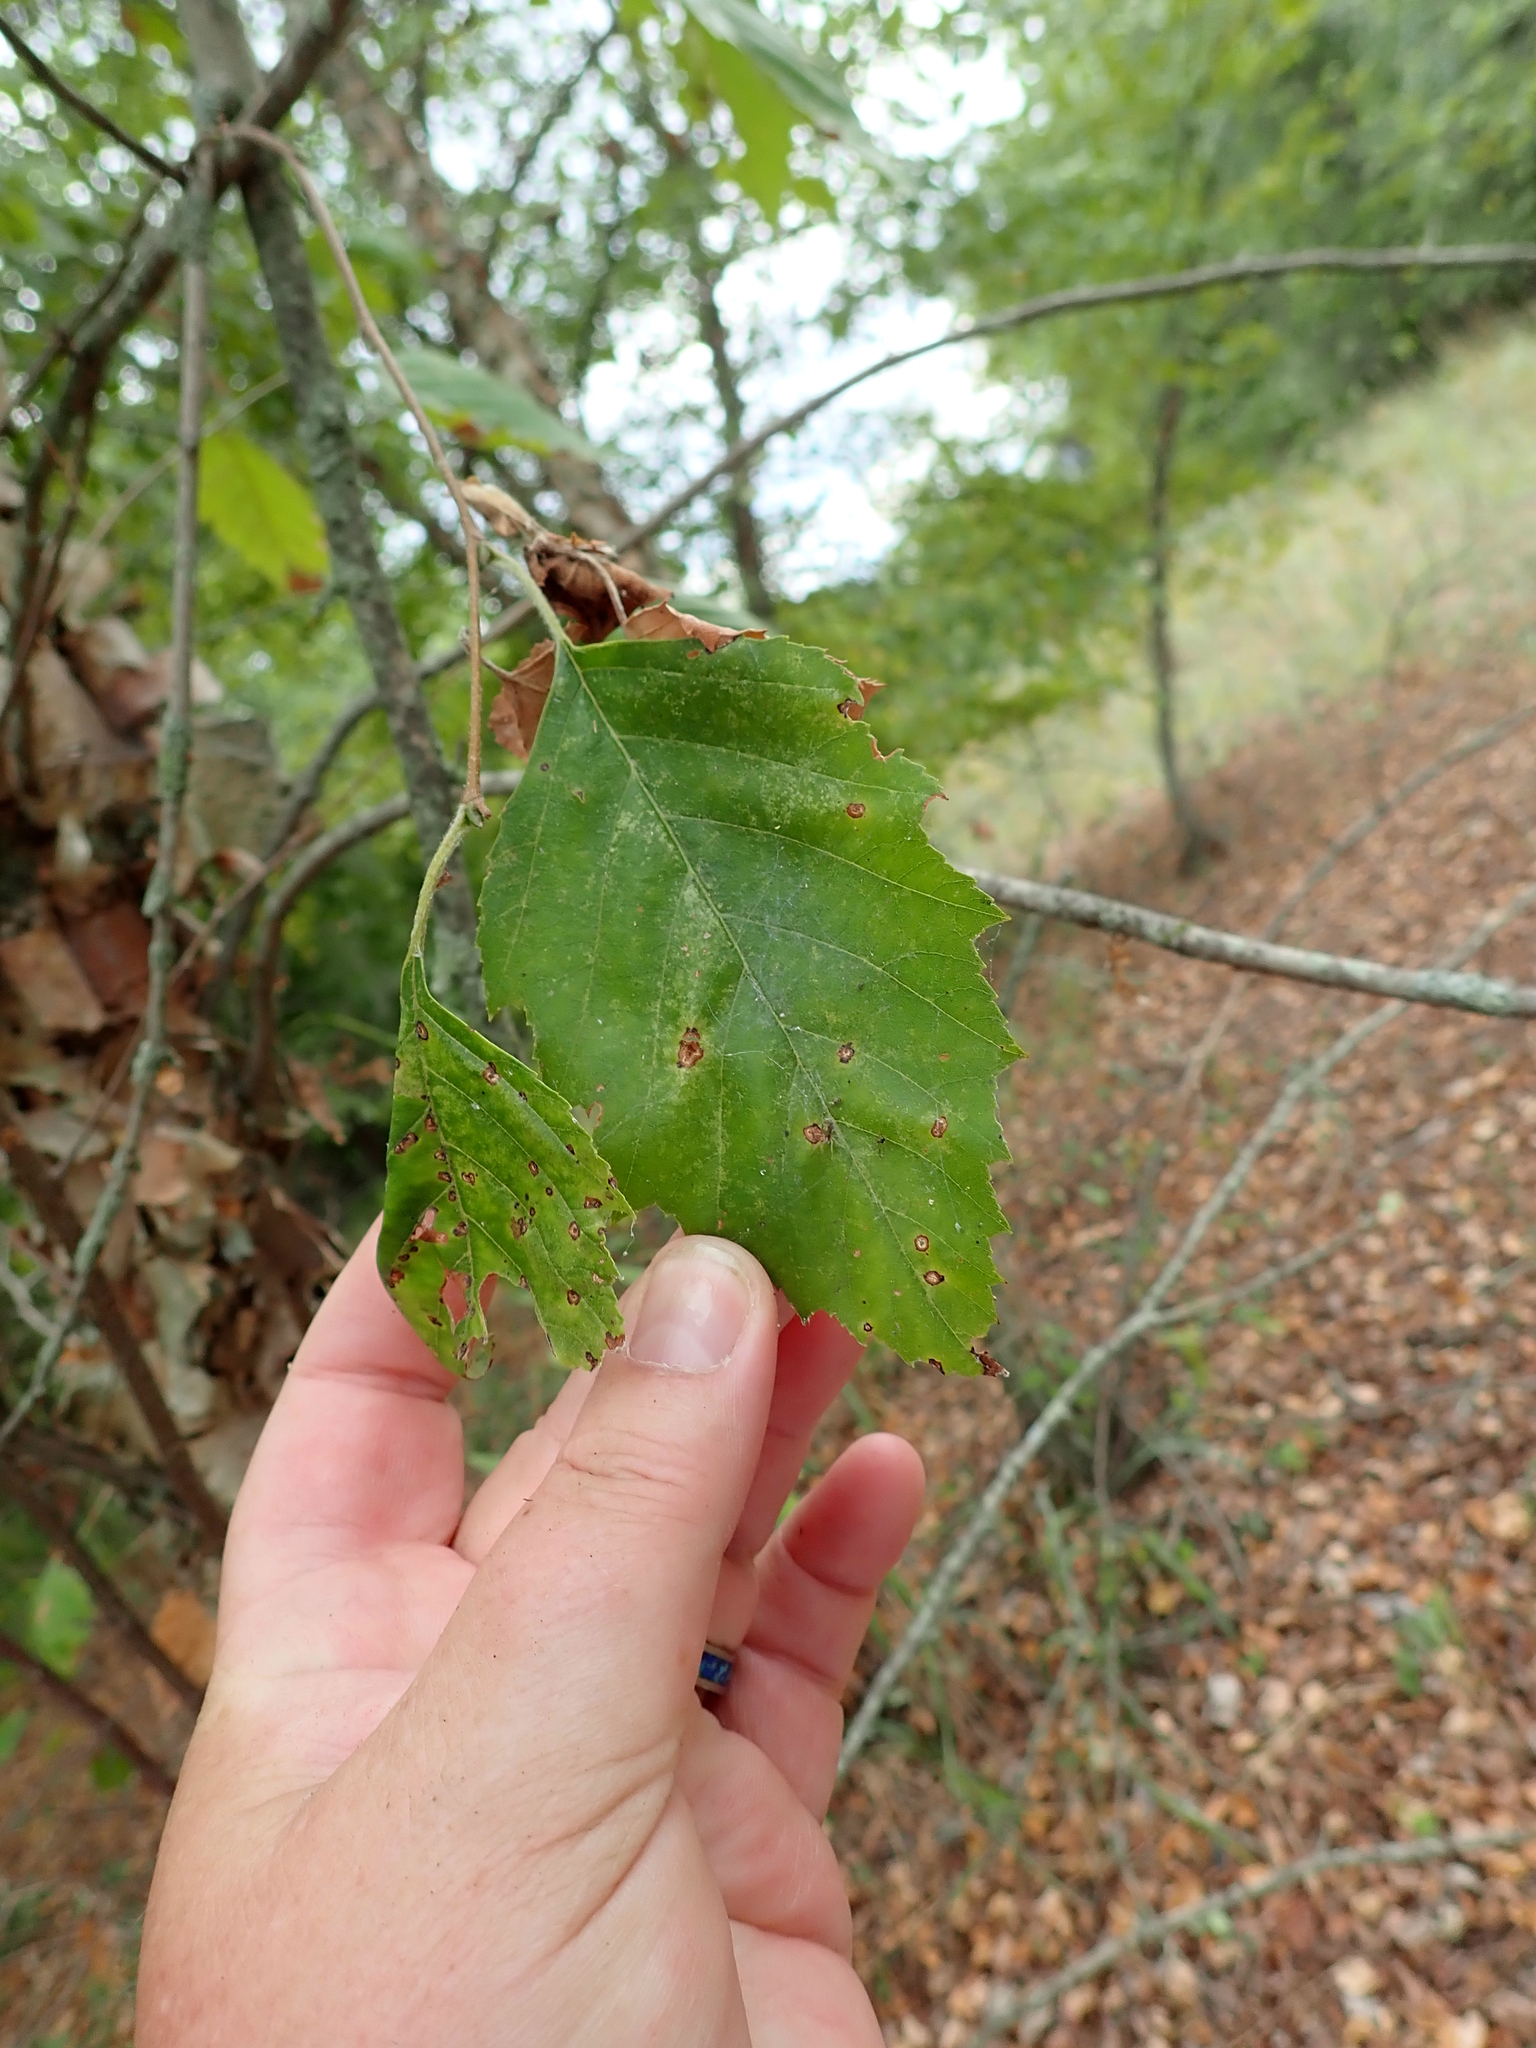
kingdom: Plantae
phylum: Tracheophyta
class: Magnoliopsida
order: Fagales
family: Betulaceae
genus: Betula
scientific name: Betula nigra
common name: Black birch
